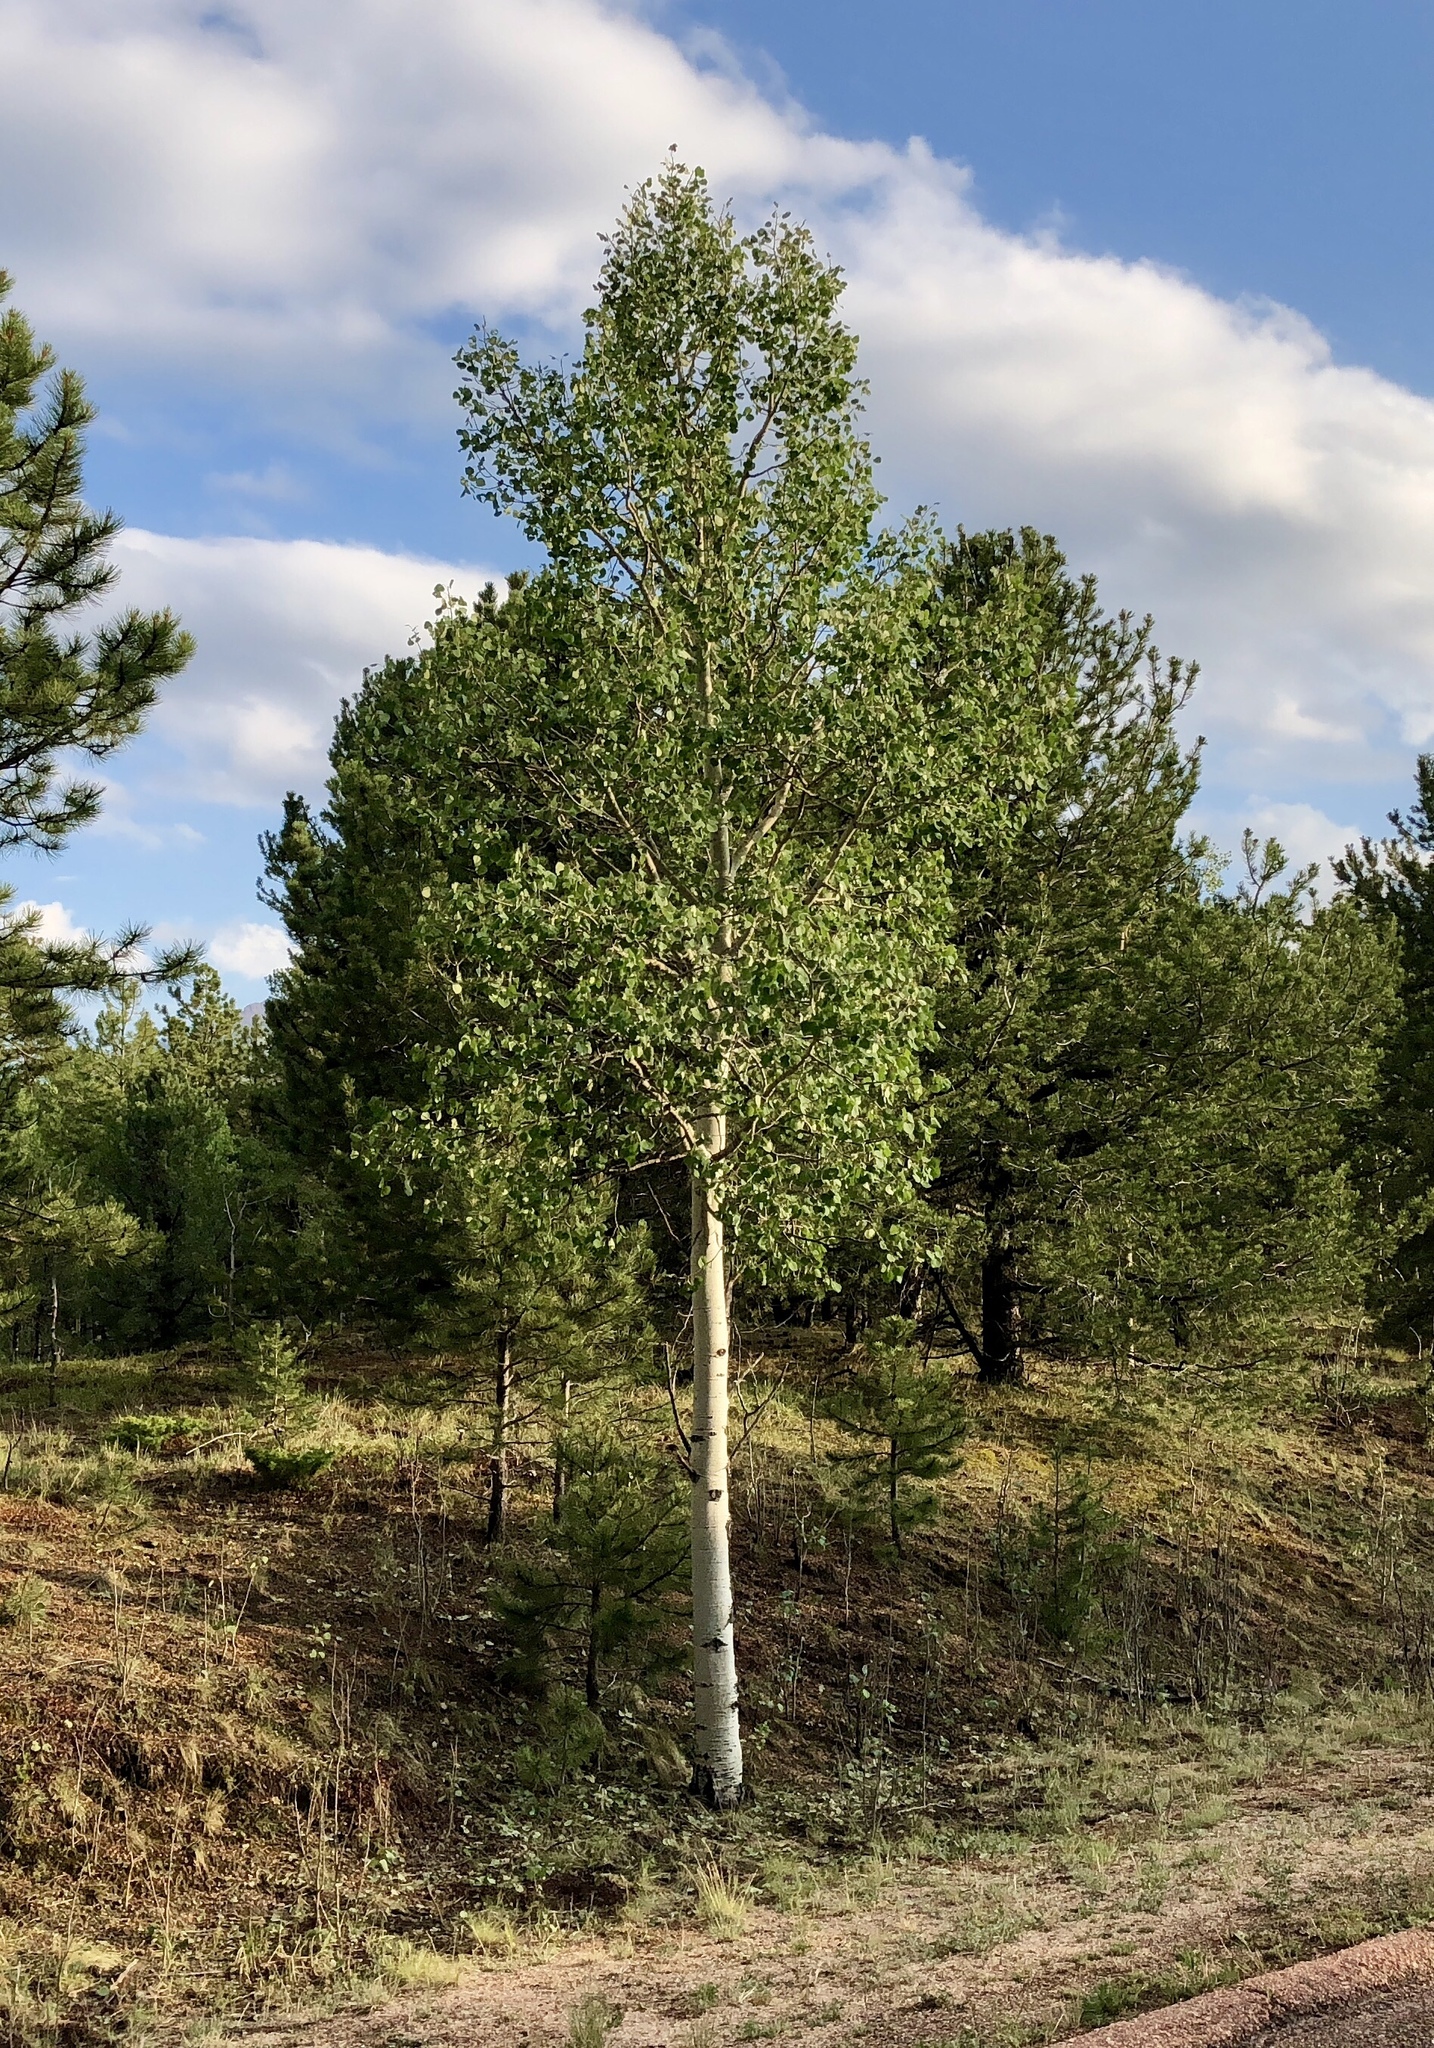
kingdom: Plantae
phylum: Tracheophyta
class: Magnoliopsida
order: Malpighiales
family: Salicaceae
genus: Populus
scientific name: Populus tremuloides
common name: Quaking aspen
